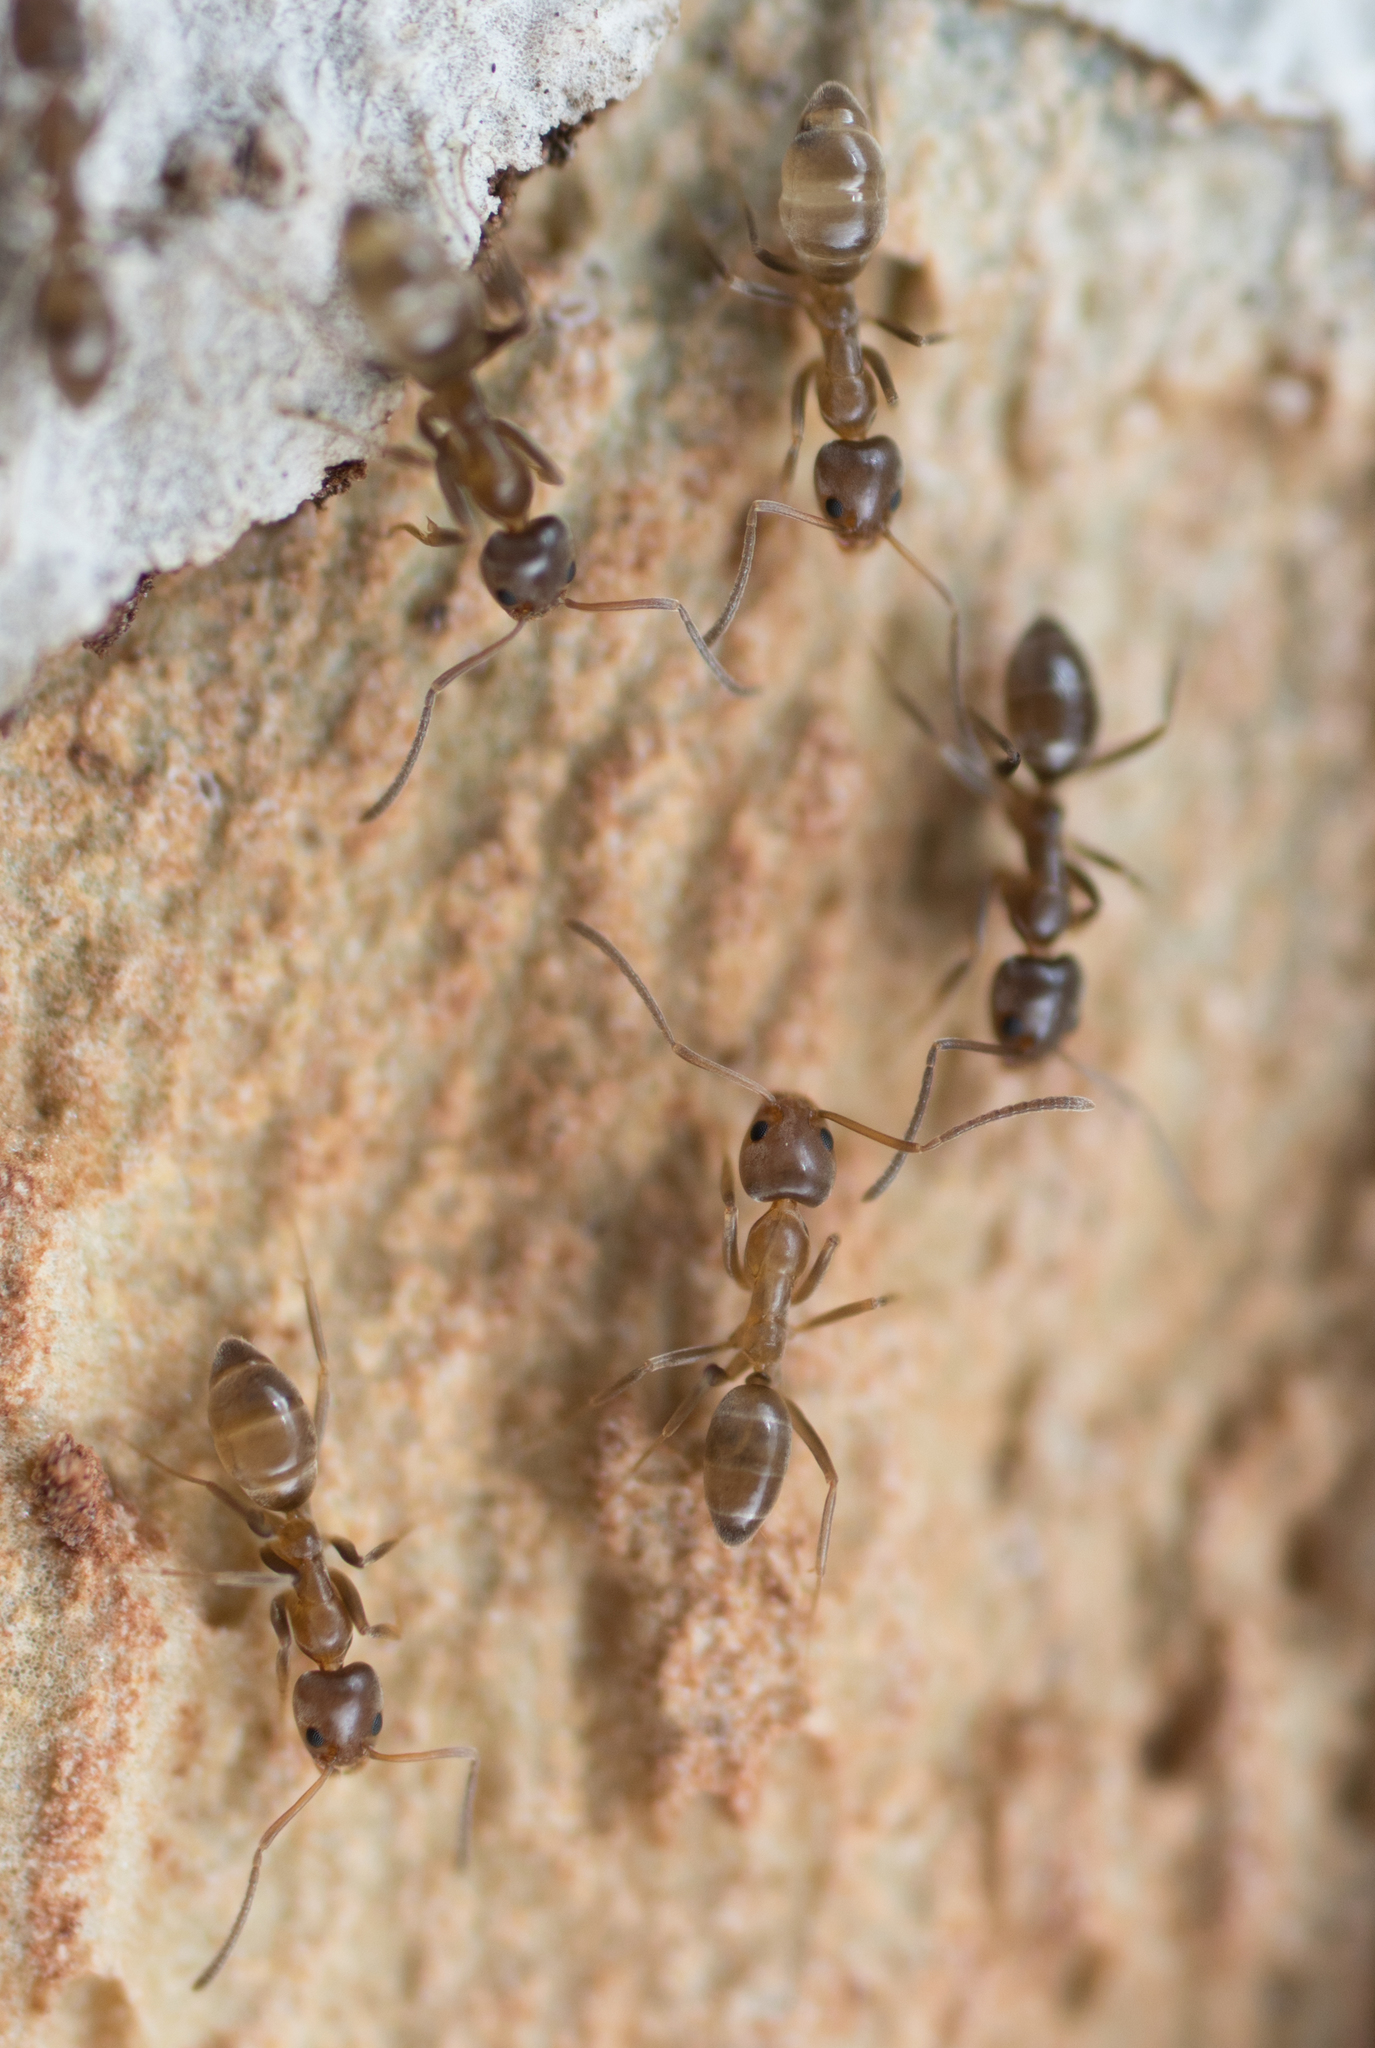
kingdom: Animalia
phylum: Arthropoda
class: Insecta
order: Hymenoptera
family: Formicidae
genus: Linepithema
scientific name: Linepithema humile
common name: Argentine ant
